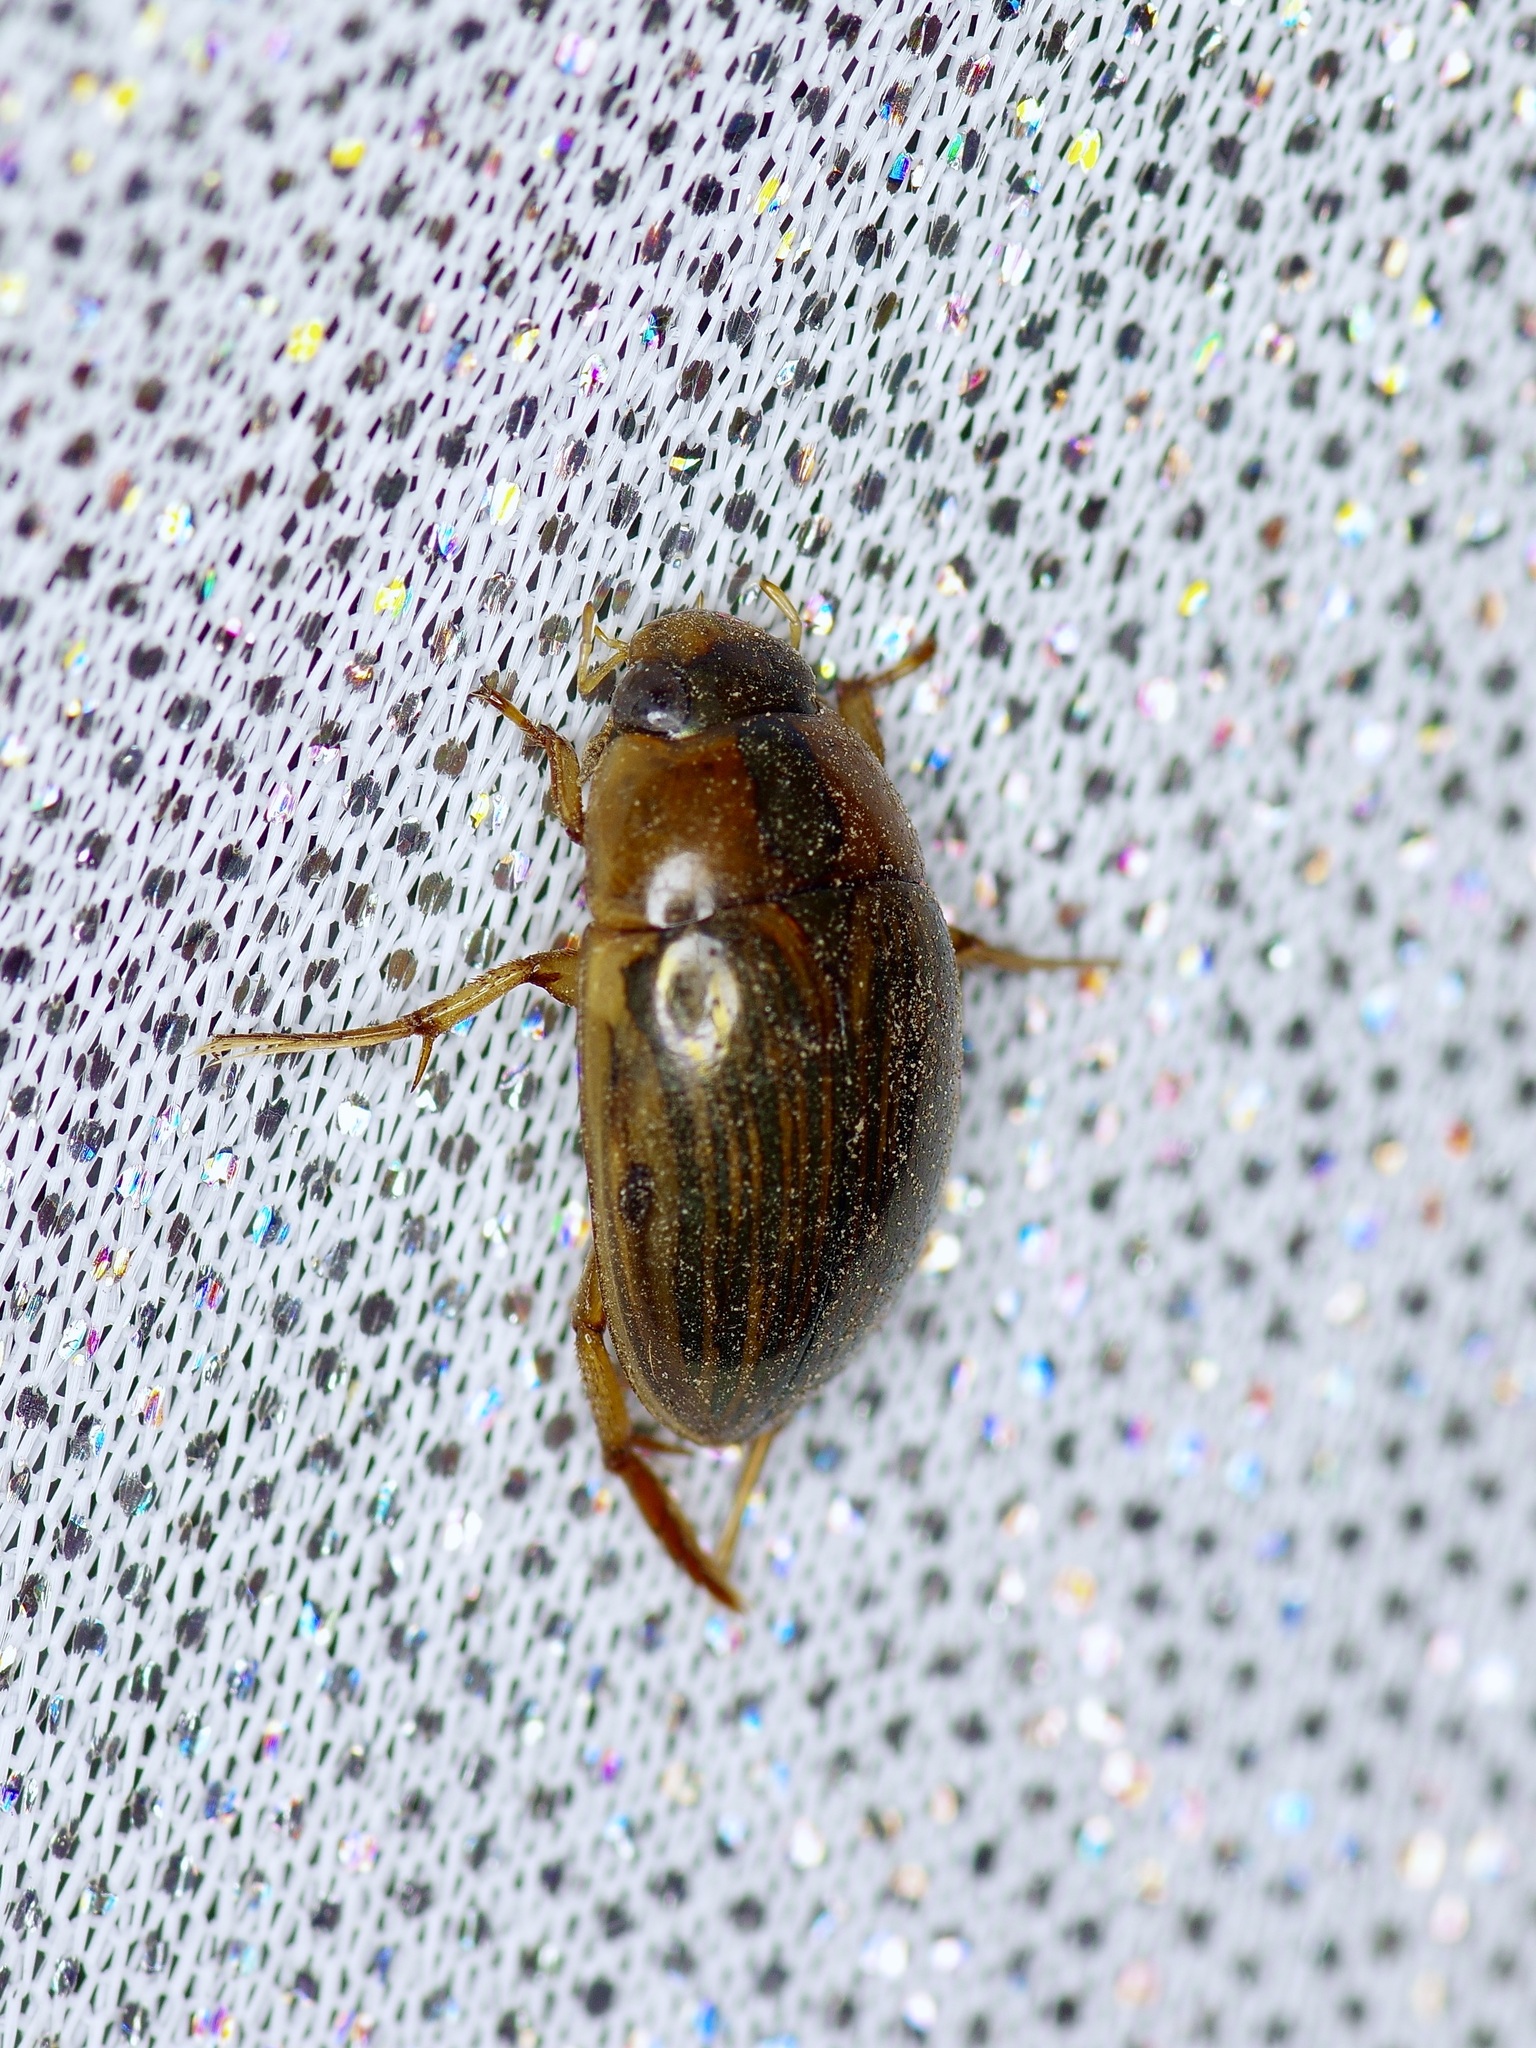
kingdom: Animalia
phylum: Arthropoda
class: Insecta
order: Coleoptera
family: Hydrophilidae
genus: Tropisternus
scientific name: Tropisternus collaris
